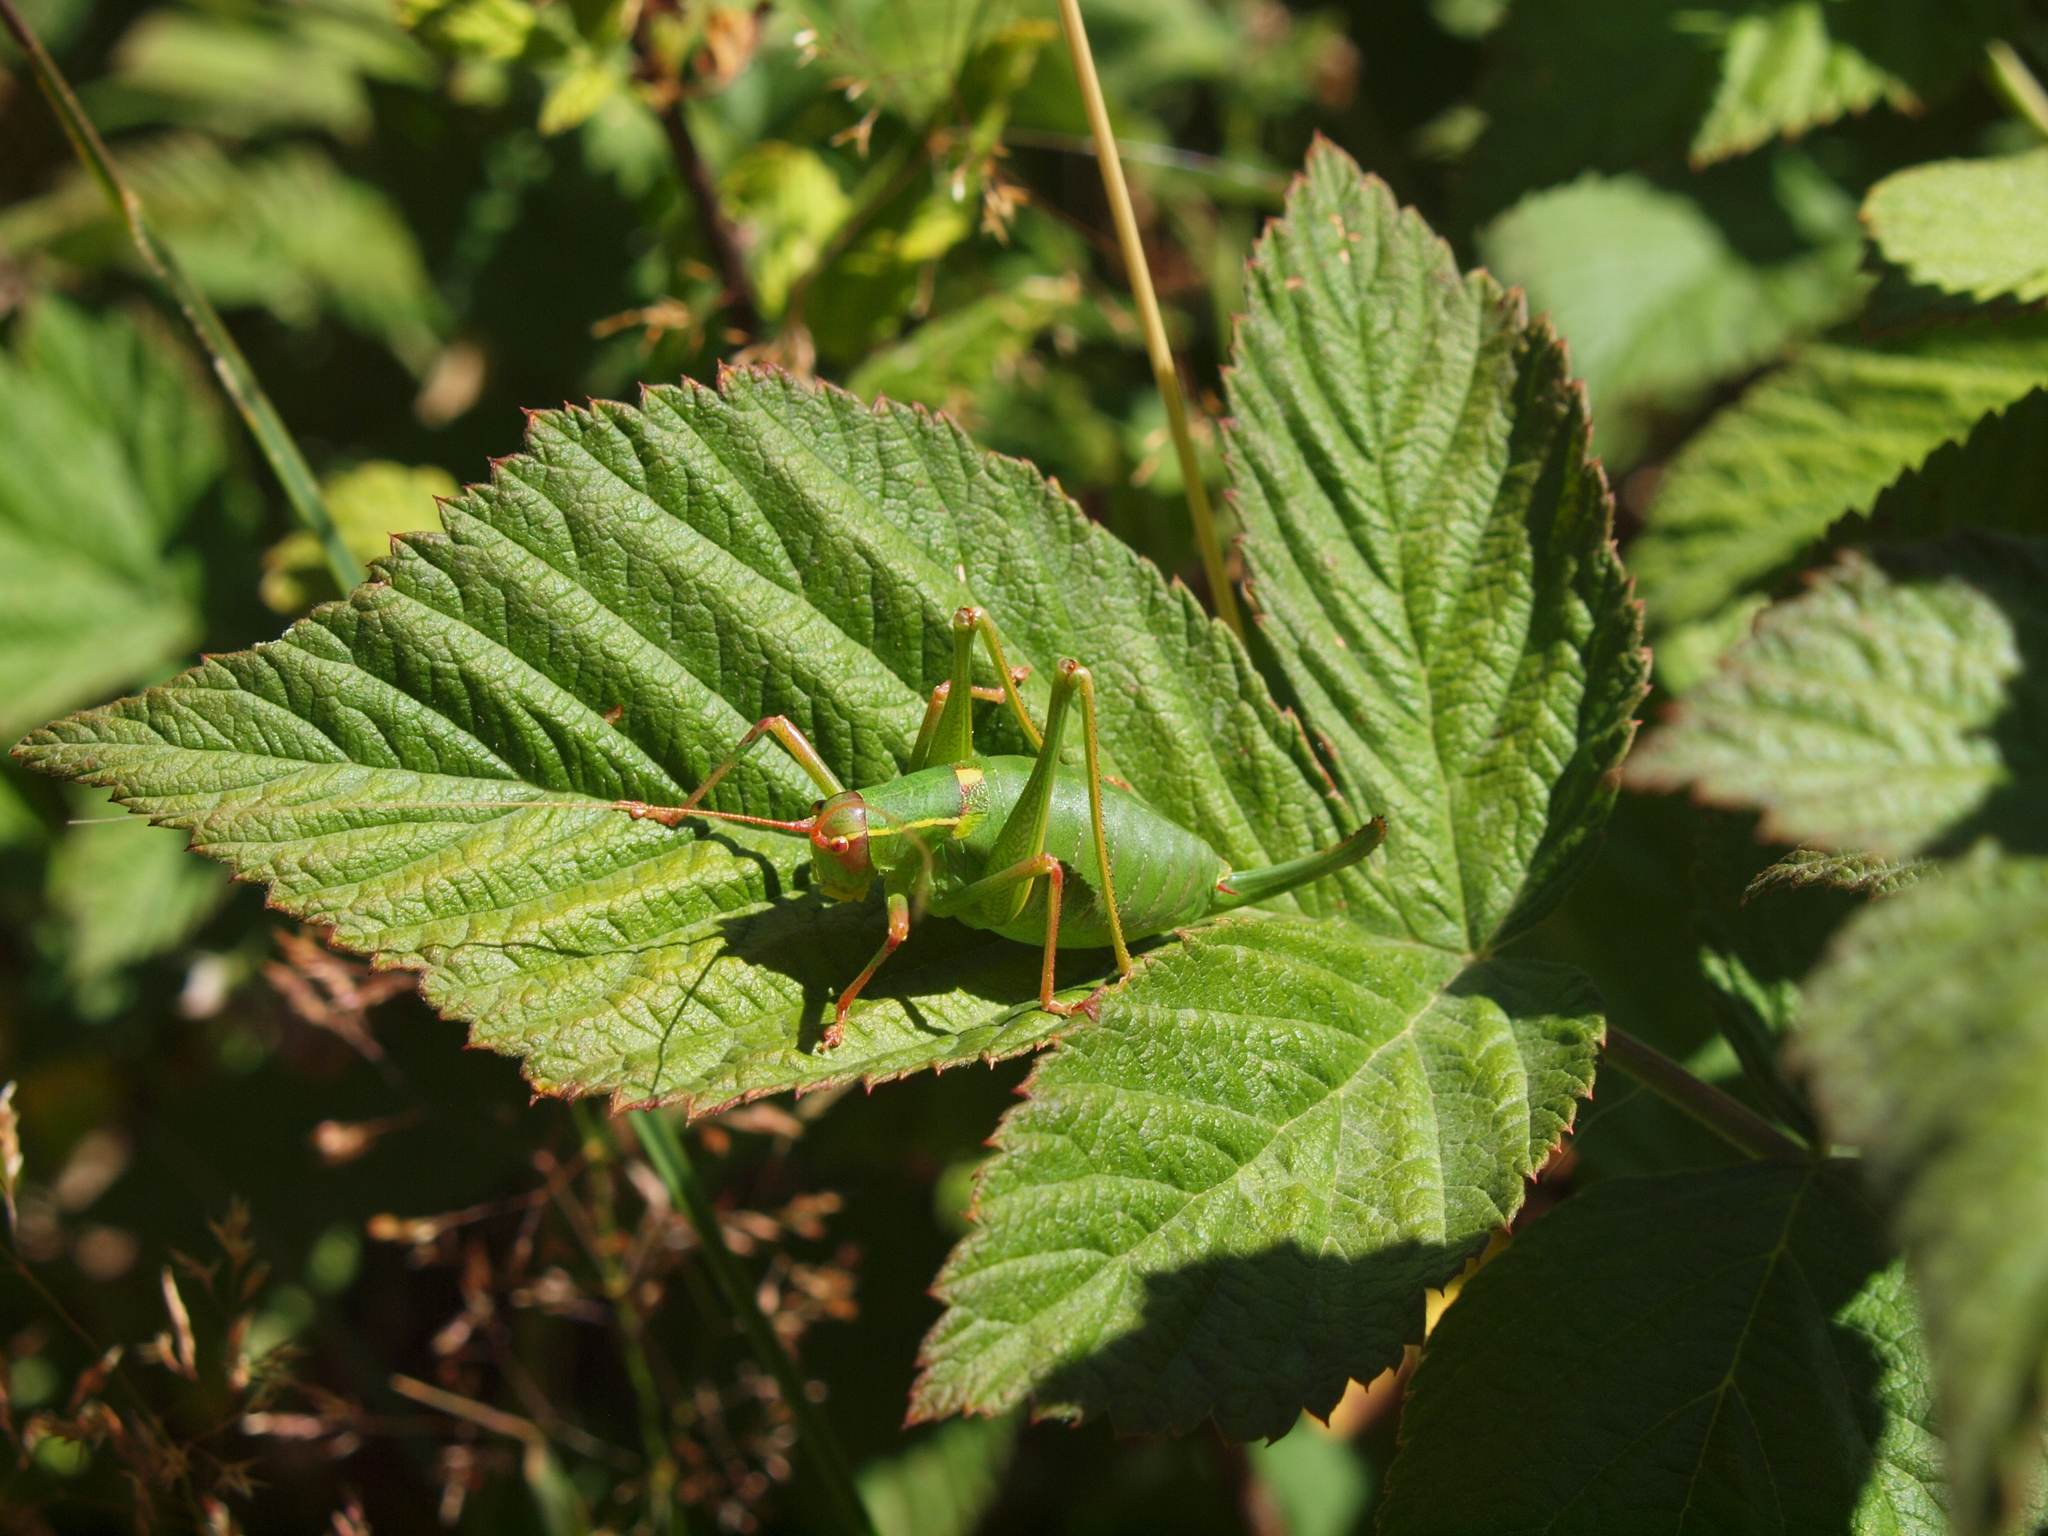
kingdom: Animalia
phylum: Arthropoda
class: Insecta
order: Orthoptera
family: Tettigoniidae
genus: Barbitistes
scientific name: Barbitistes yersini
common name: Balkan saw bush-cricket
